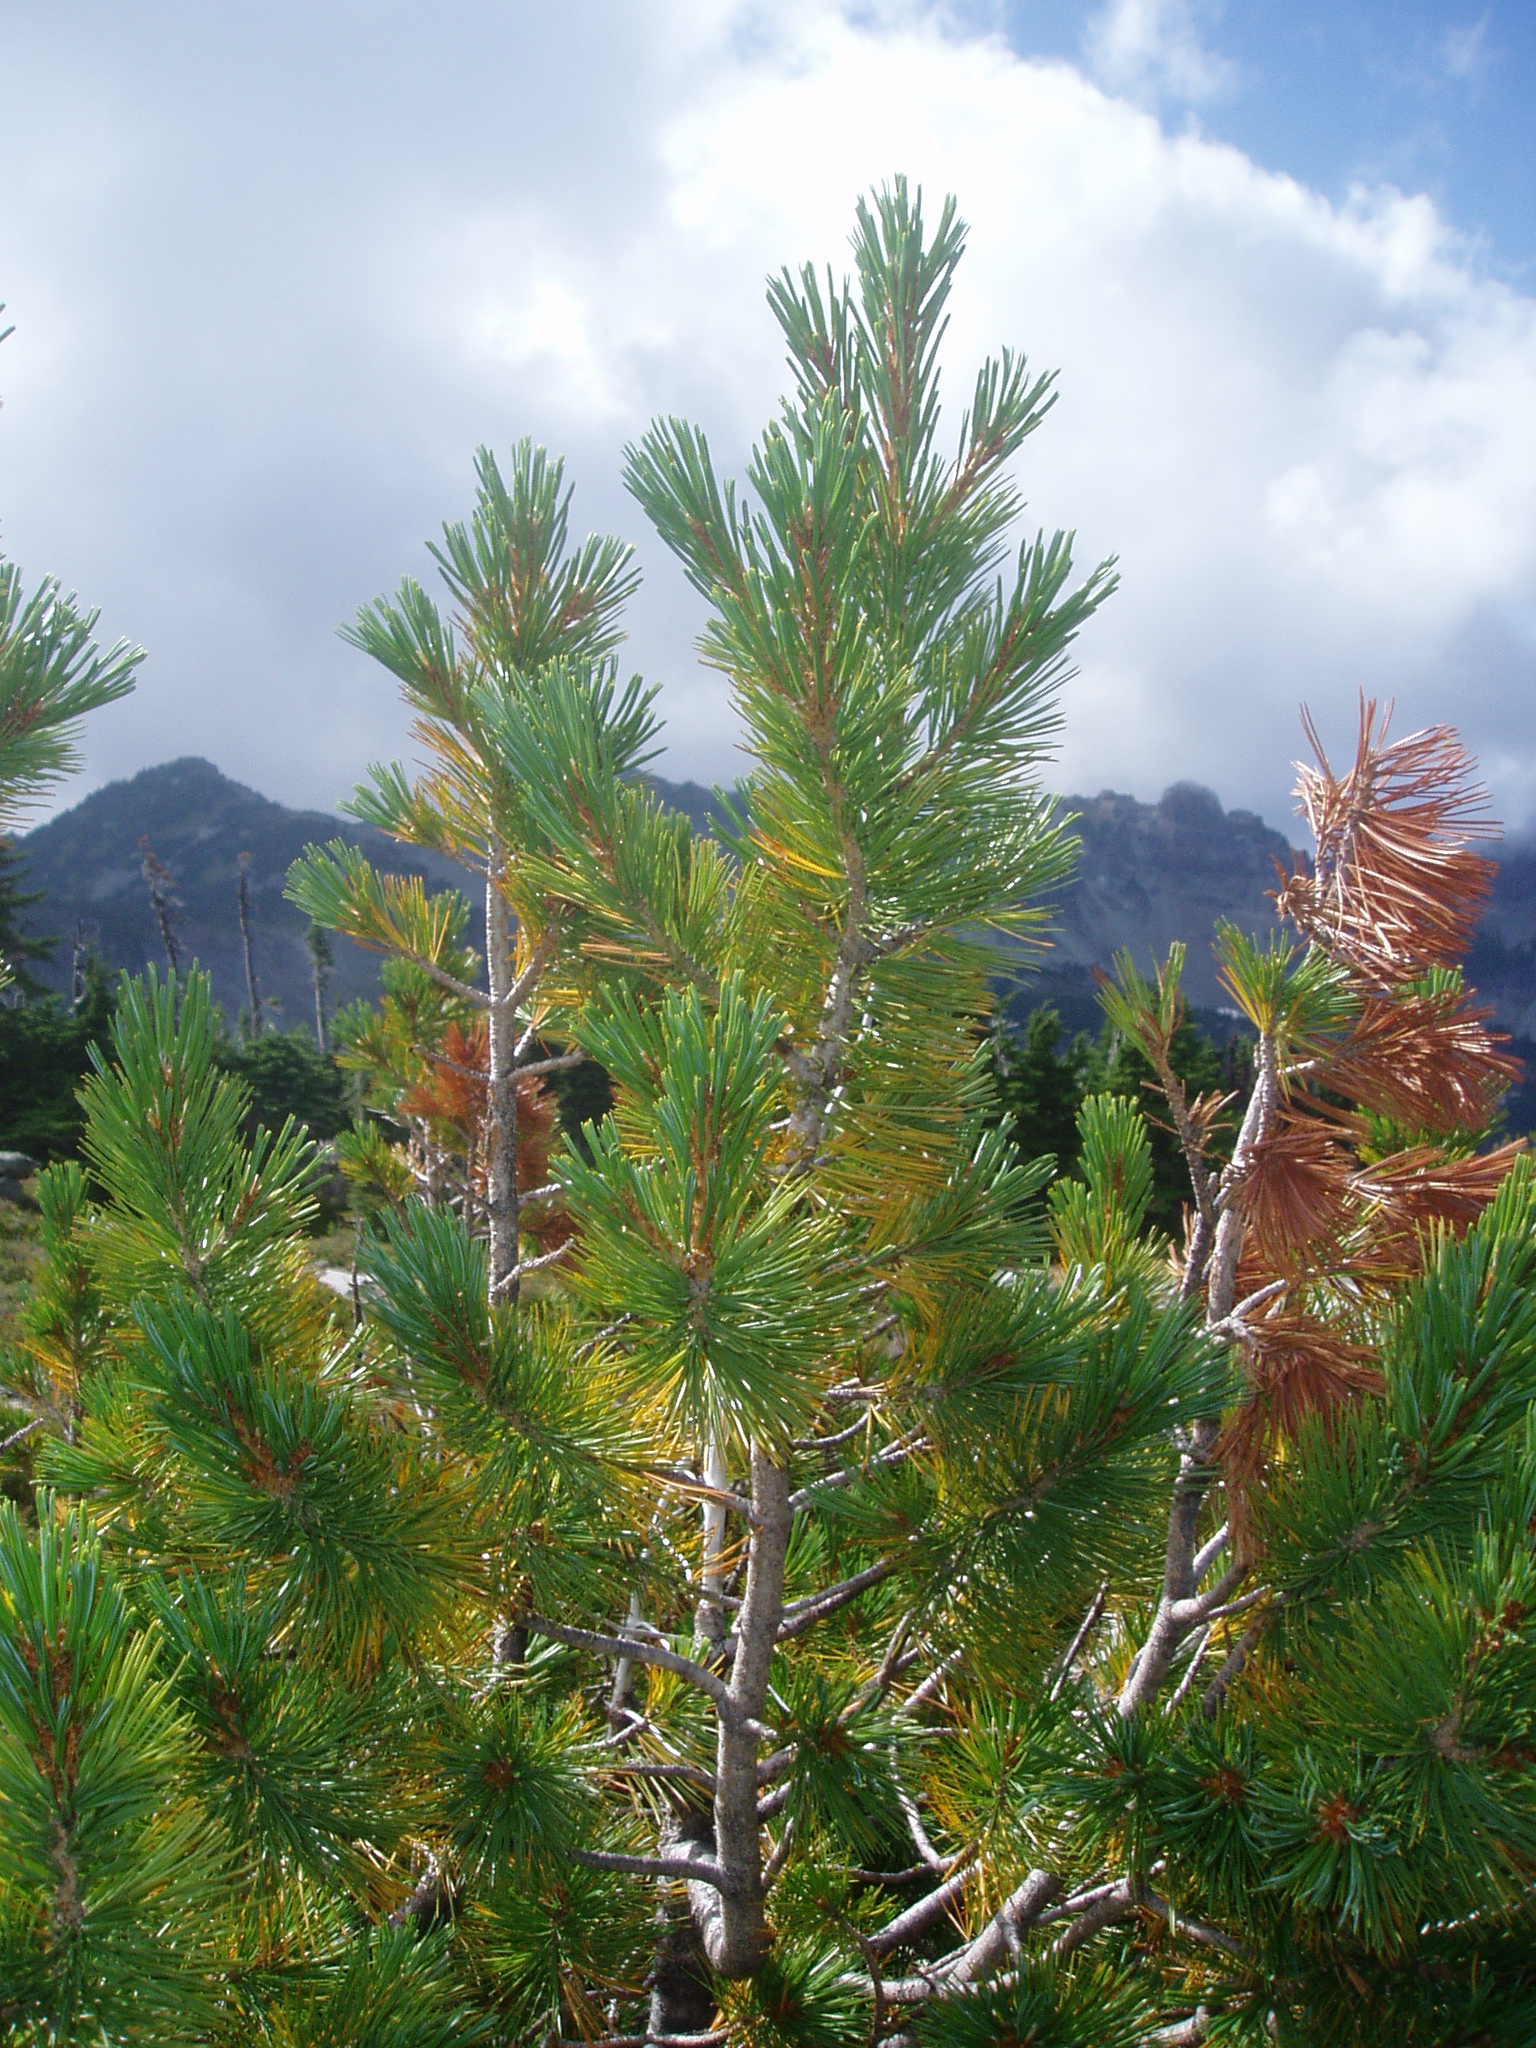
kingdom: Plantae
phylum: Tracheophyta
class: Pinopsida
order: Pinales
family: Pinaceae
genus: Pinus
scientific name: Pinus albicaulis
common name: Whitebark pine
